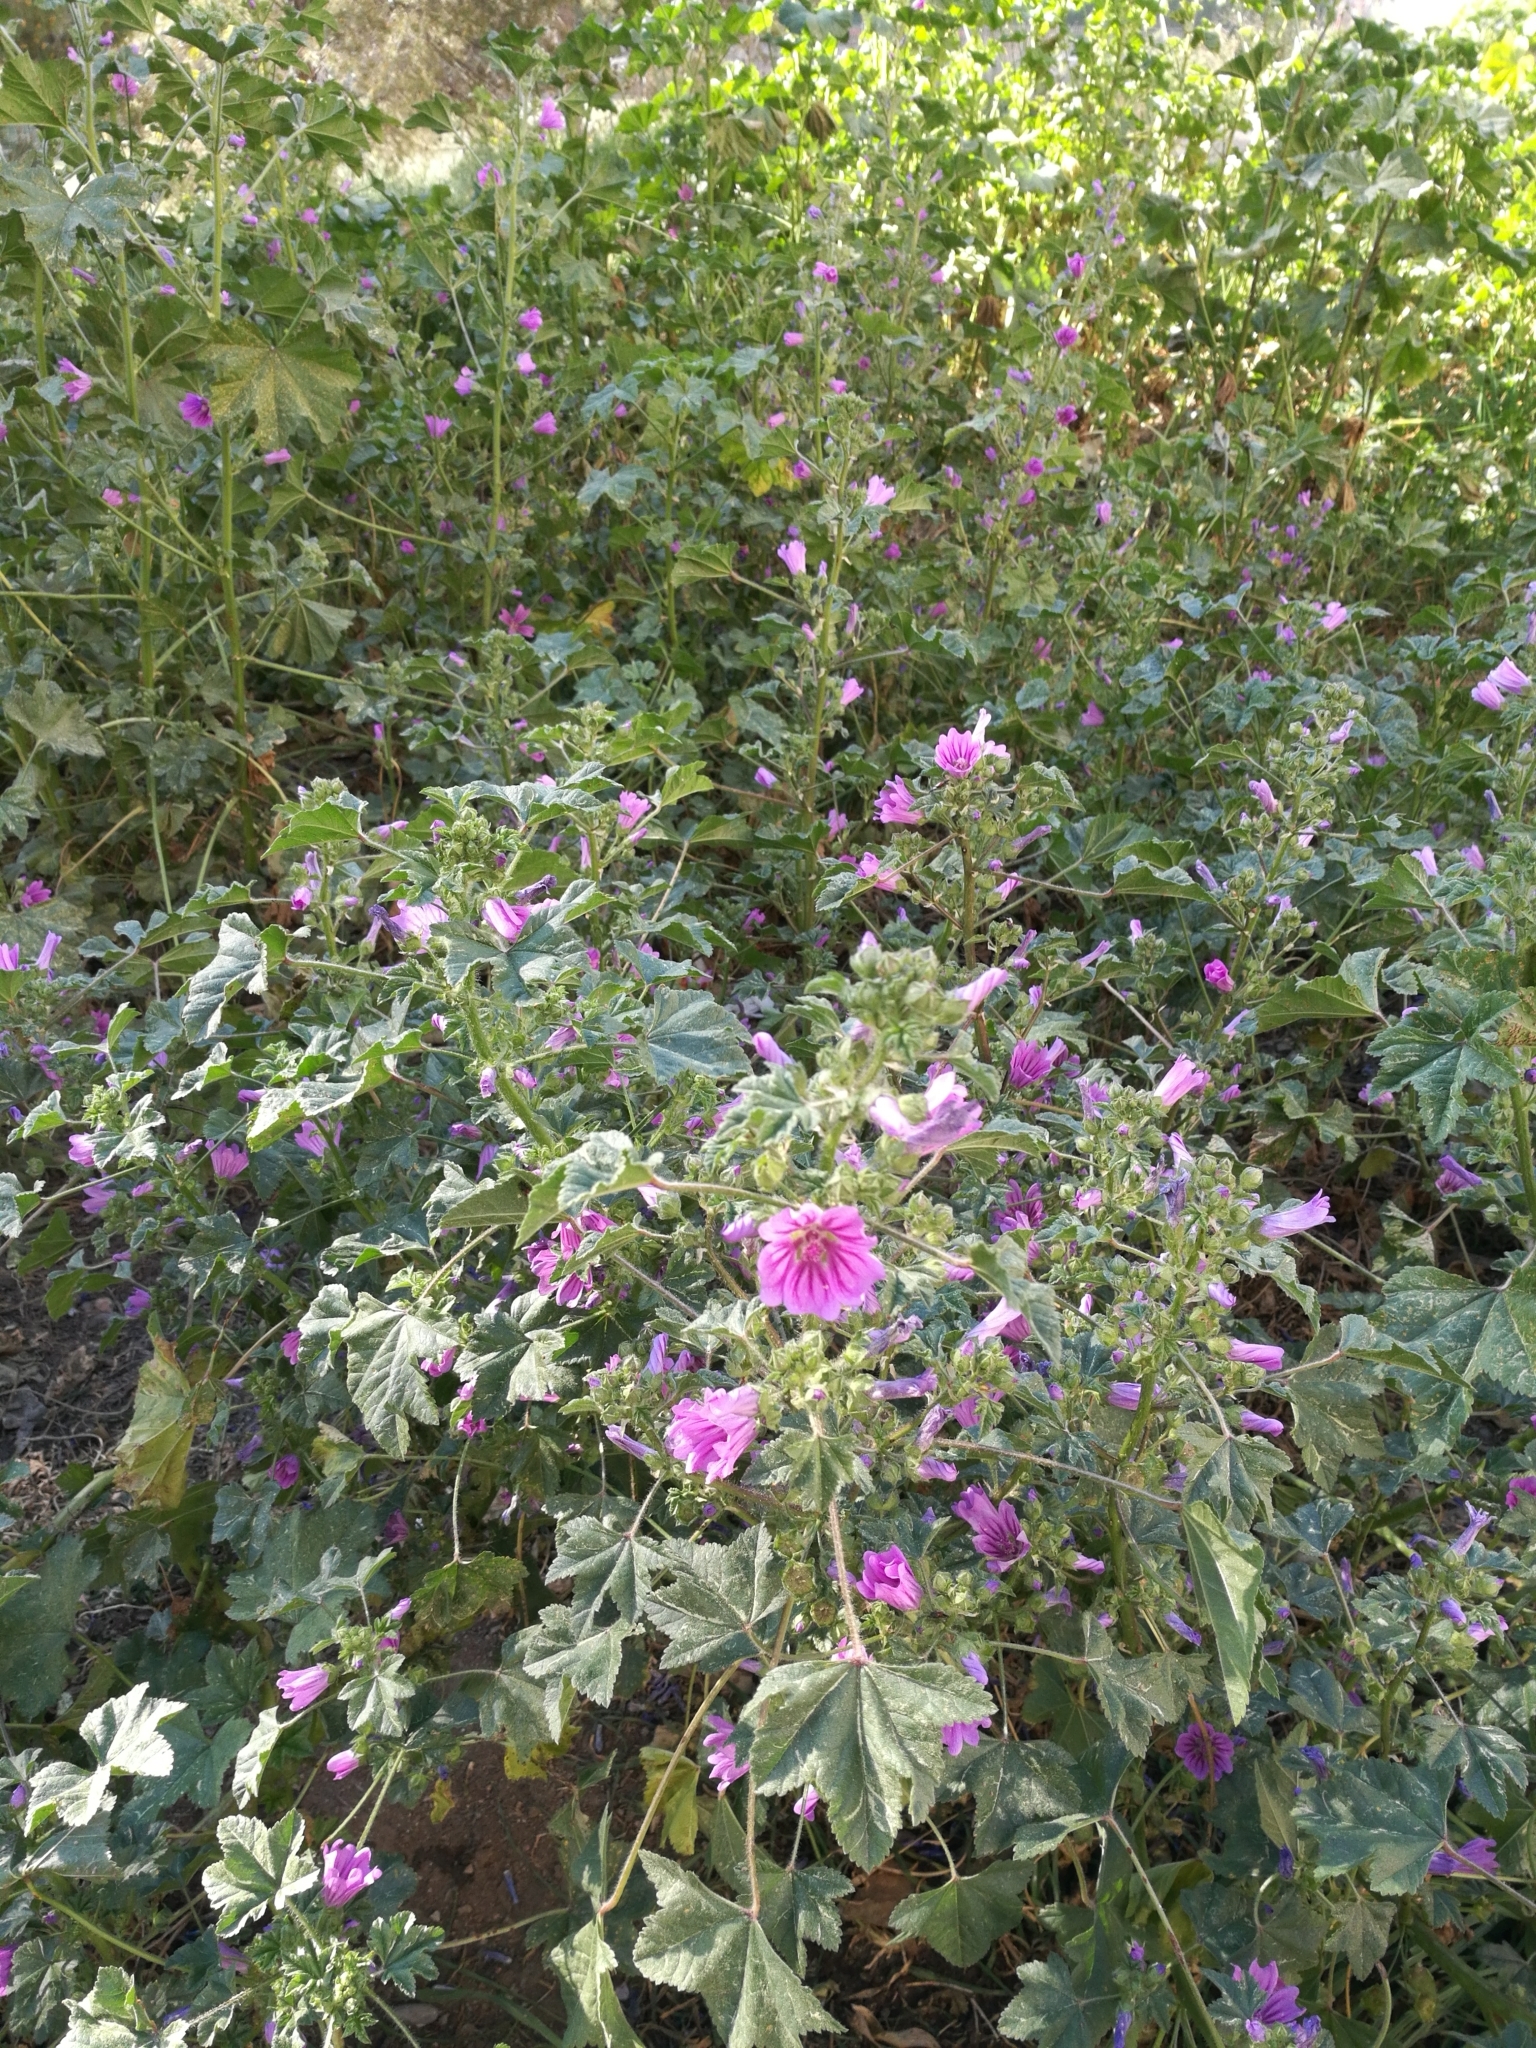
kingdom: Plantae
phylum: Tracheophyta
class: Magnoliopsida
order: Malvales
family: Malvaceae
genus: Malva
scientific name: Malva sylvestris
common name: Common mallow
